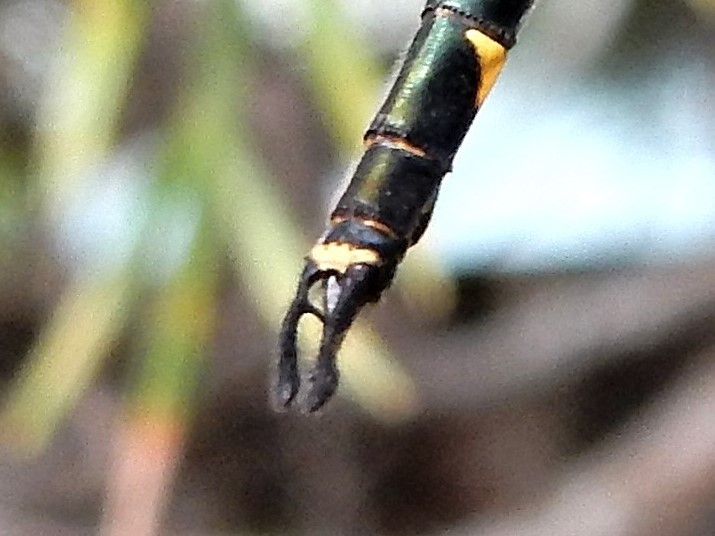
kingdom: Animalia
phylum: Arthropoda
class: Insecta
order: Odonata
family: Corduliidae
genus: Hemicordulia
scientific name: Hemicordulia australiae
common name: Sentry dragonfly
